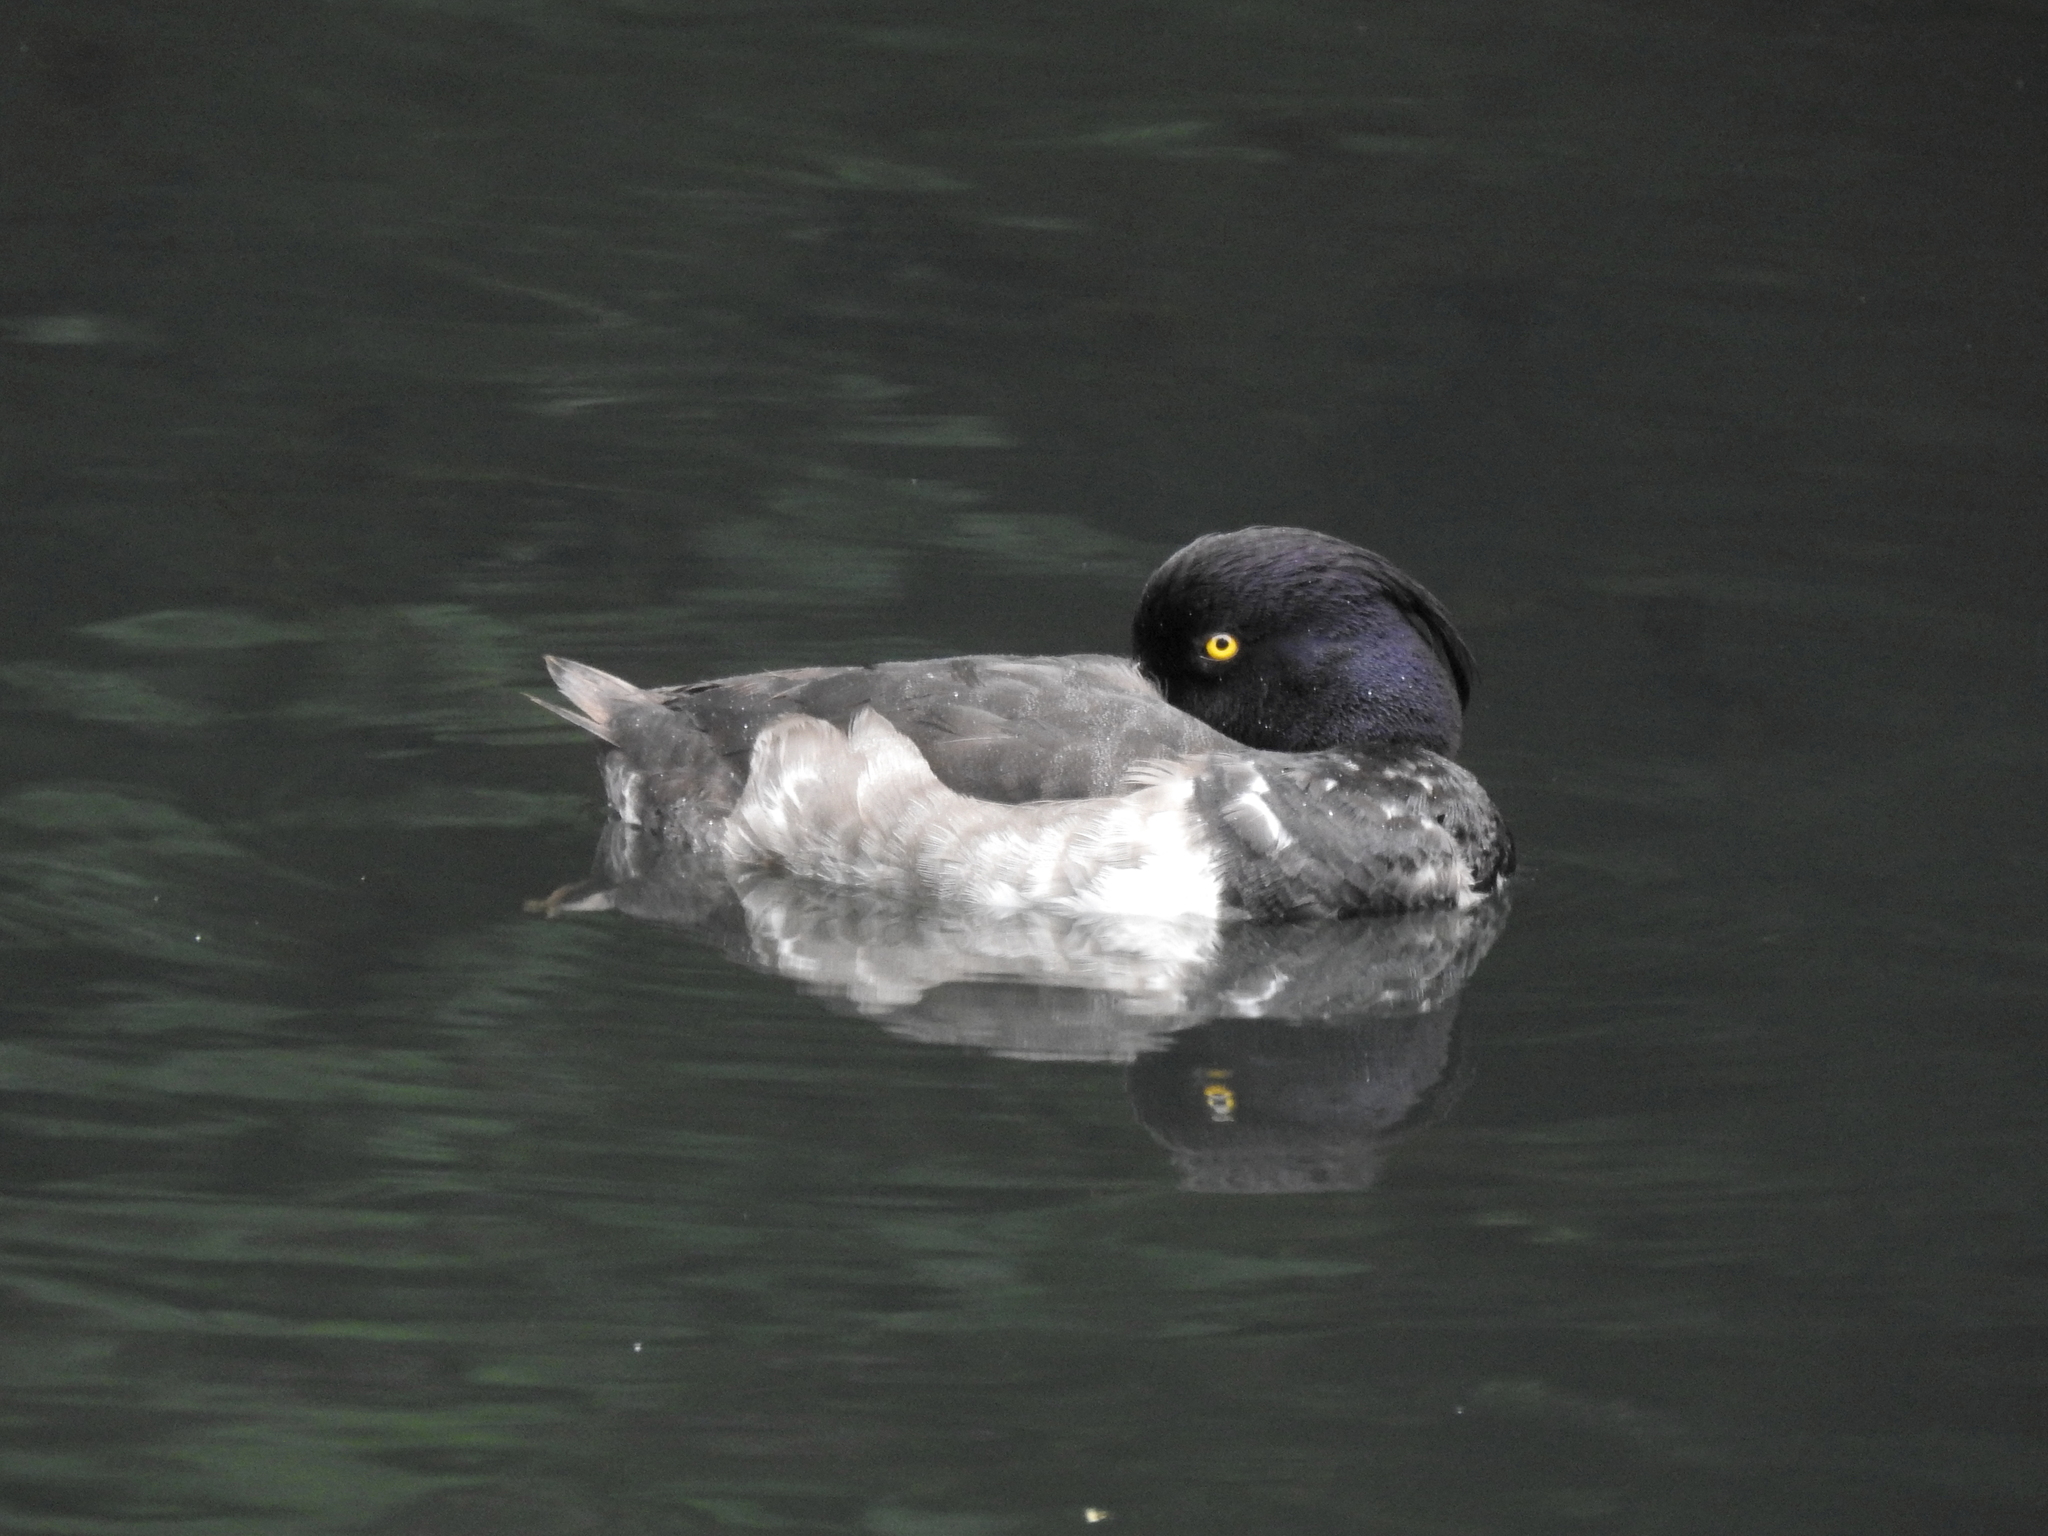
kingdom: Animalia
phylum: Chordata
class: Aves
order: Anseriformes
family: Anatidae
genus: Aythya
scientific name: Aythya fuligula
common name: Tufted duck
